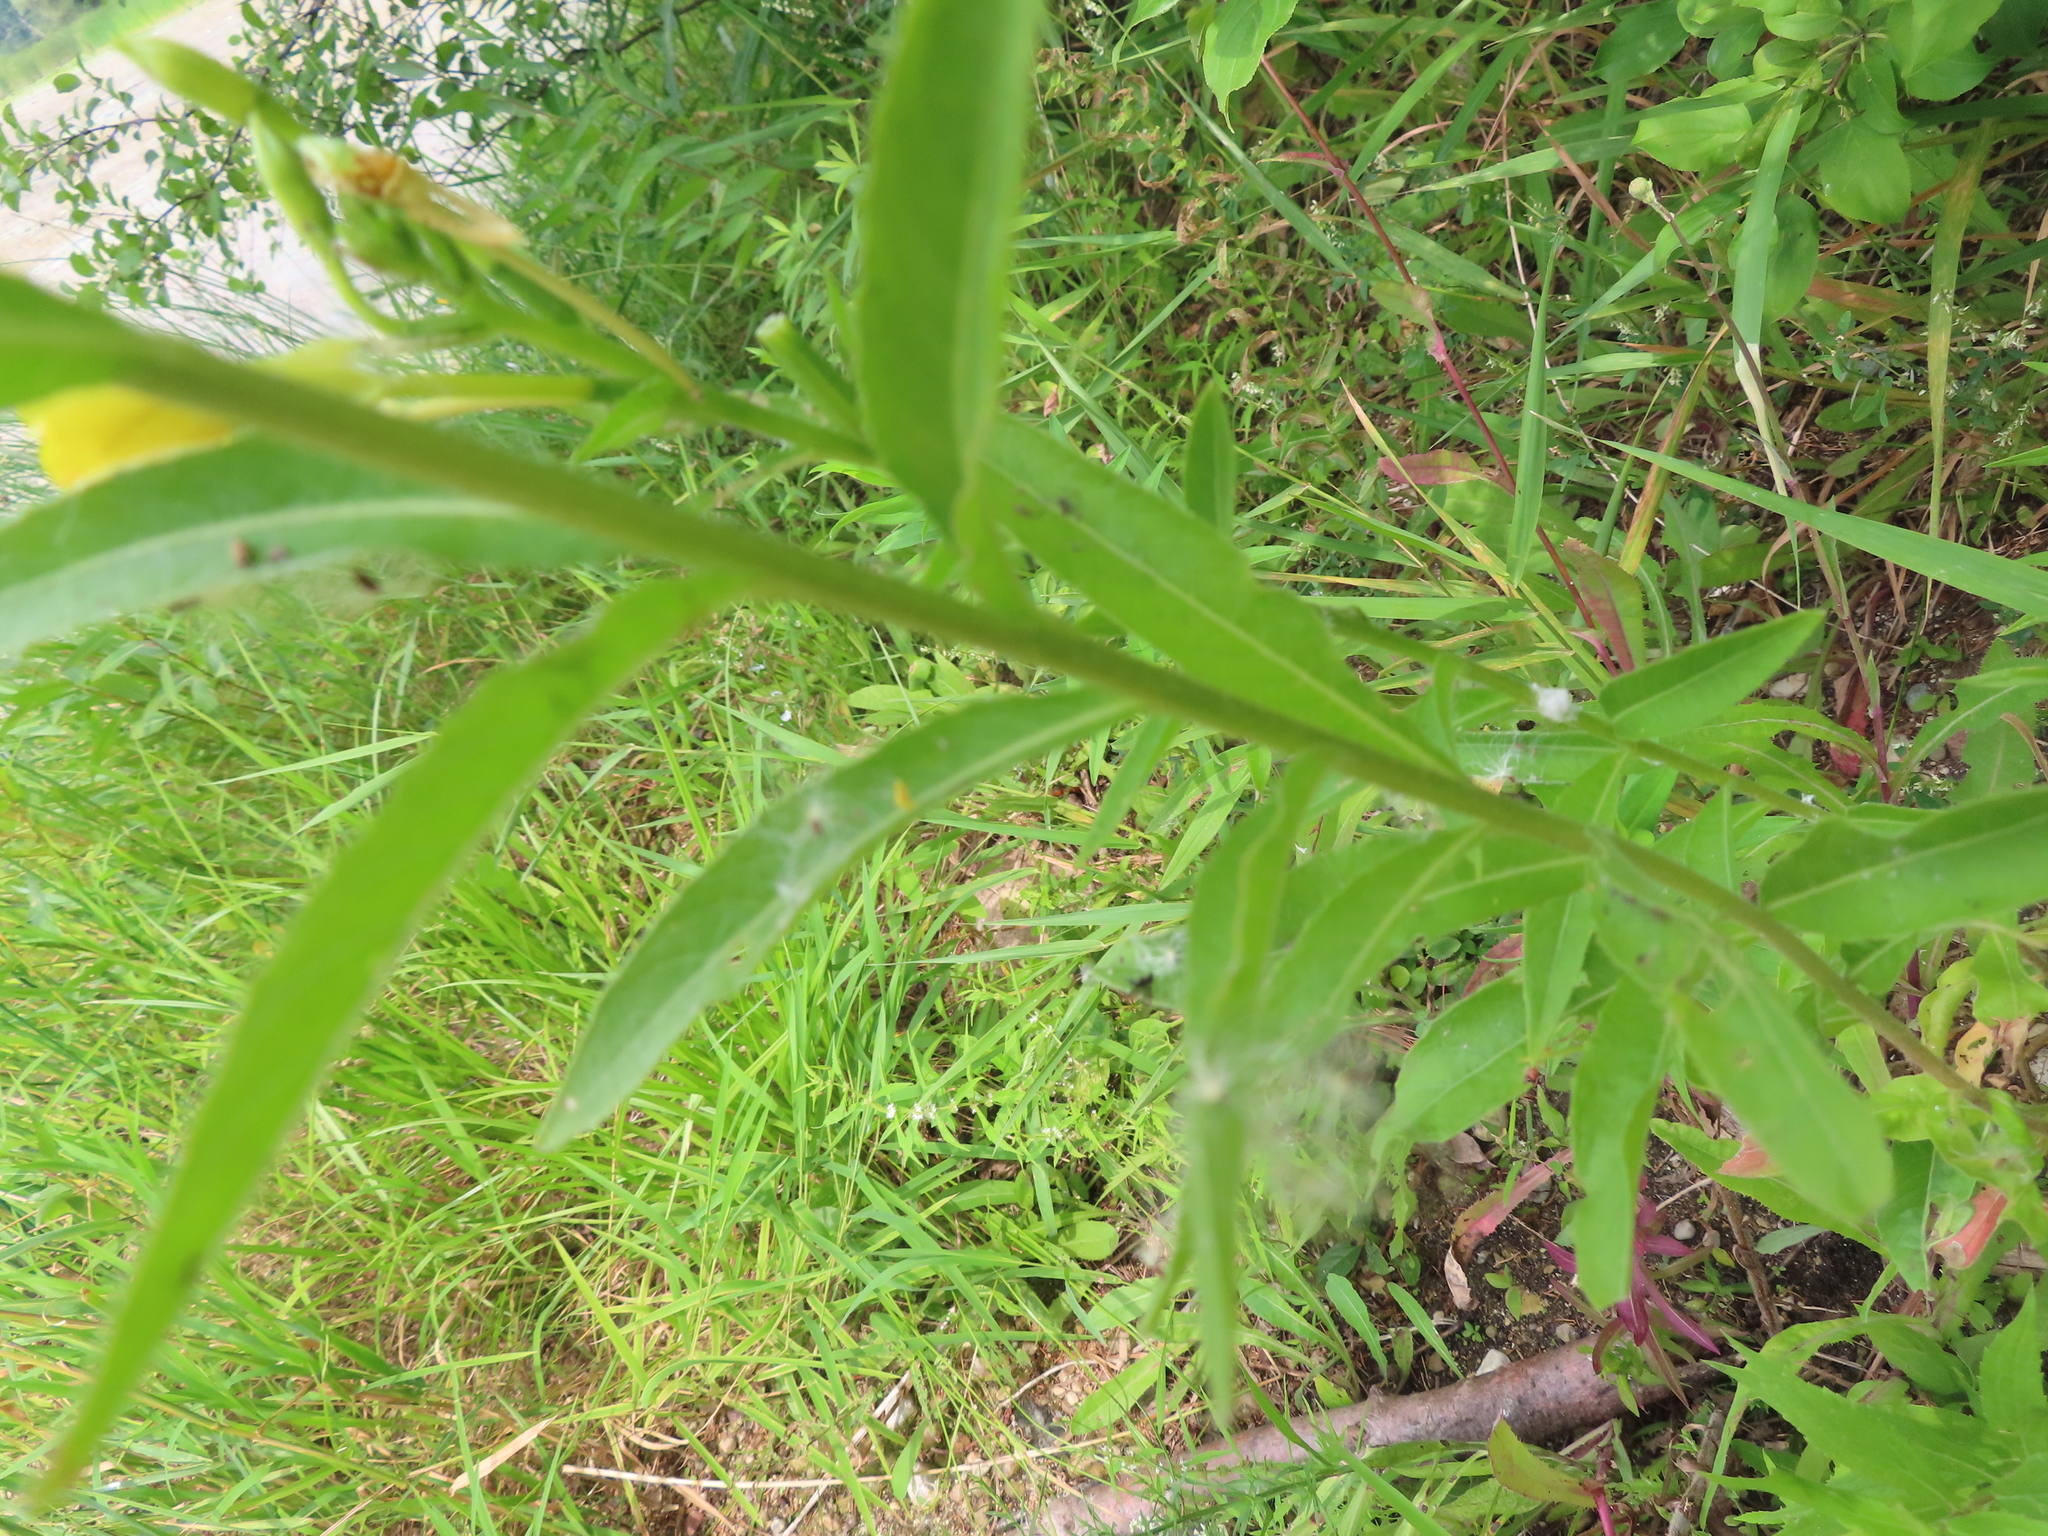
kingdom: Plantae
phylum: Tracheophyta
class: Magnoliopsida
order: Myrtales
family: Onagraceae
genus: Oenothera
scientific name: Oenothera biennis
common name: Common evening-primrose
